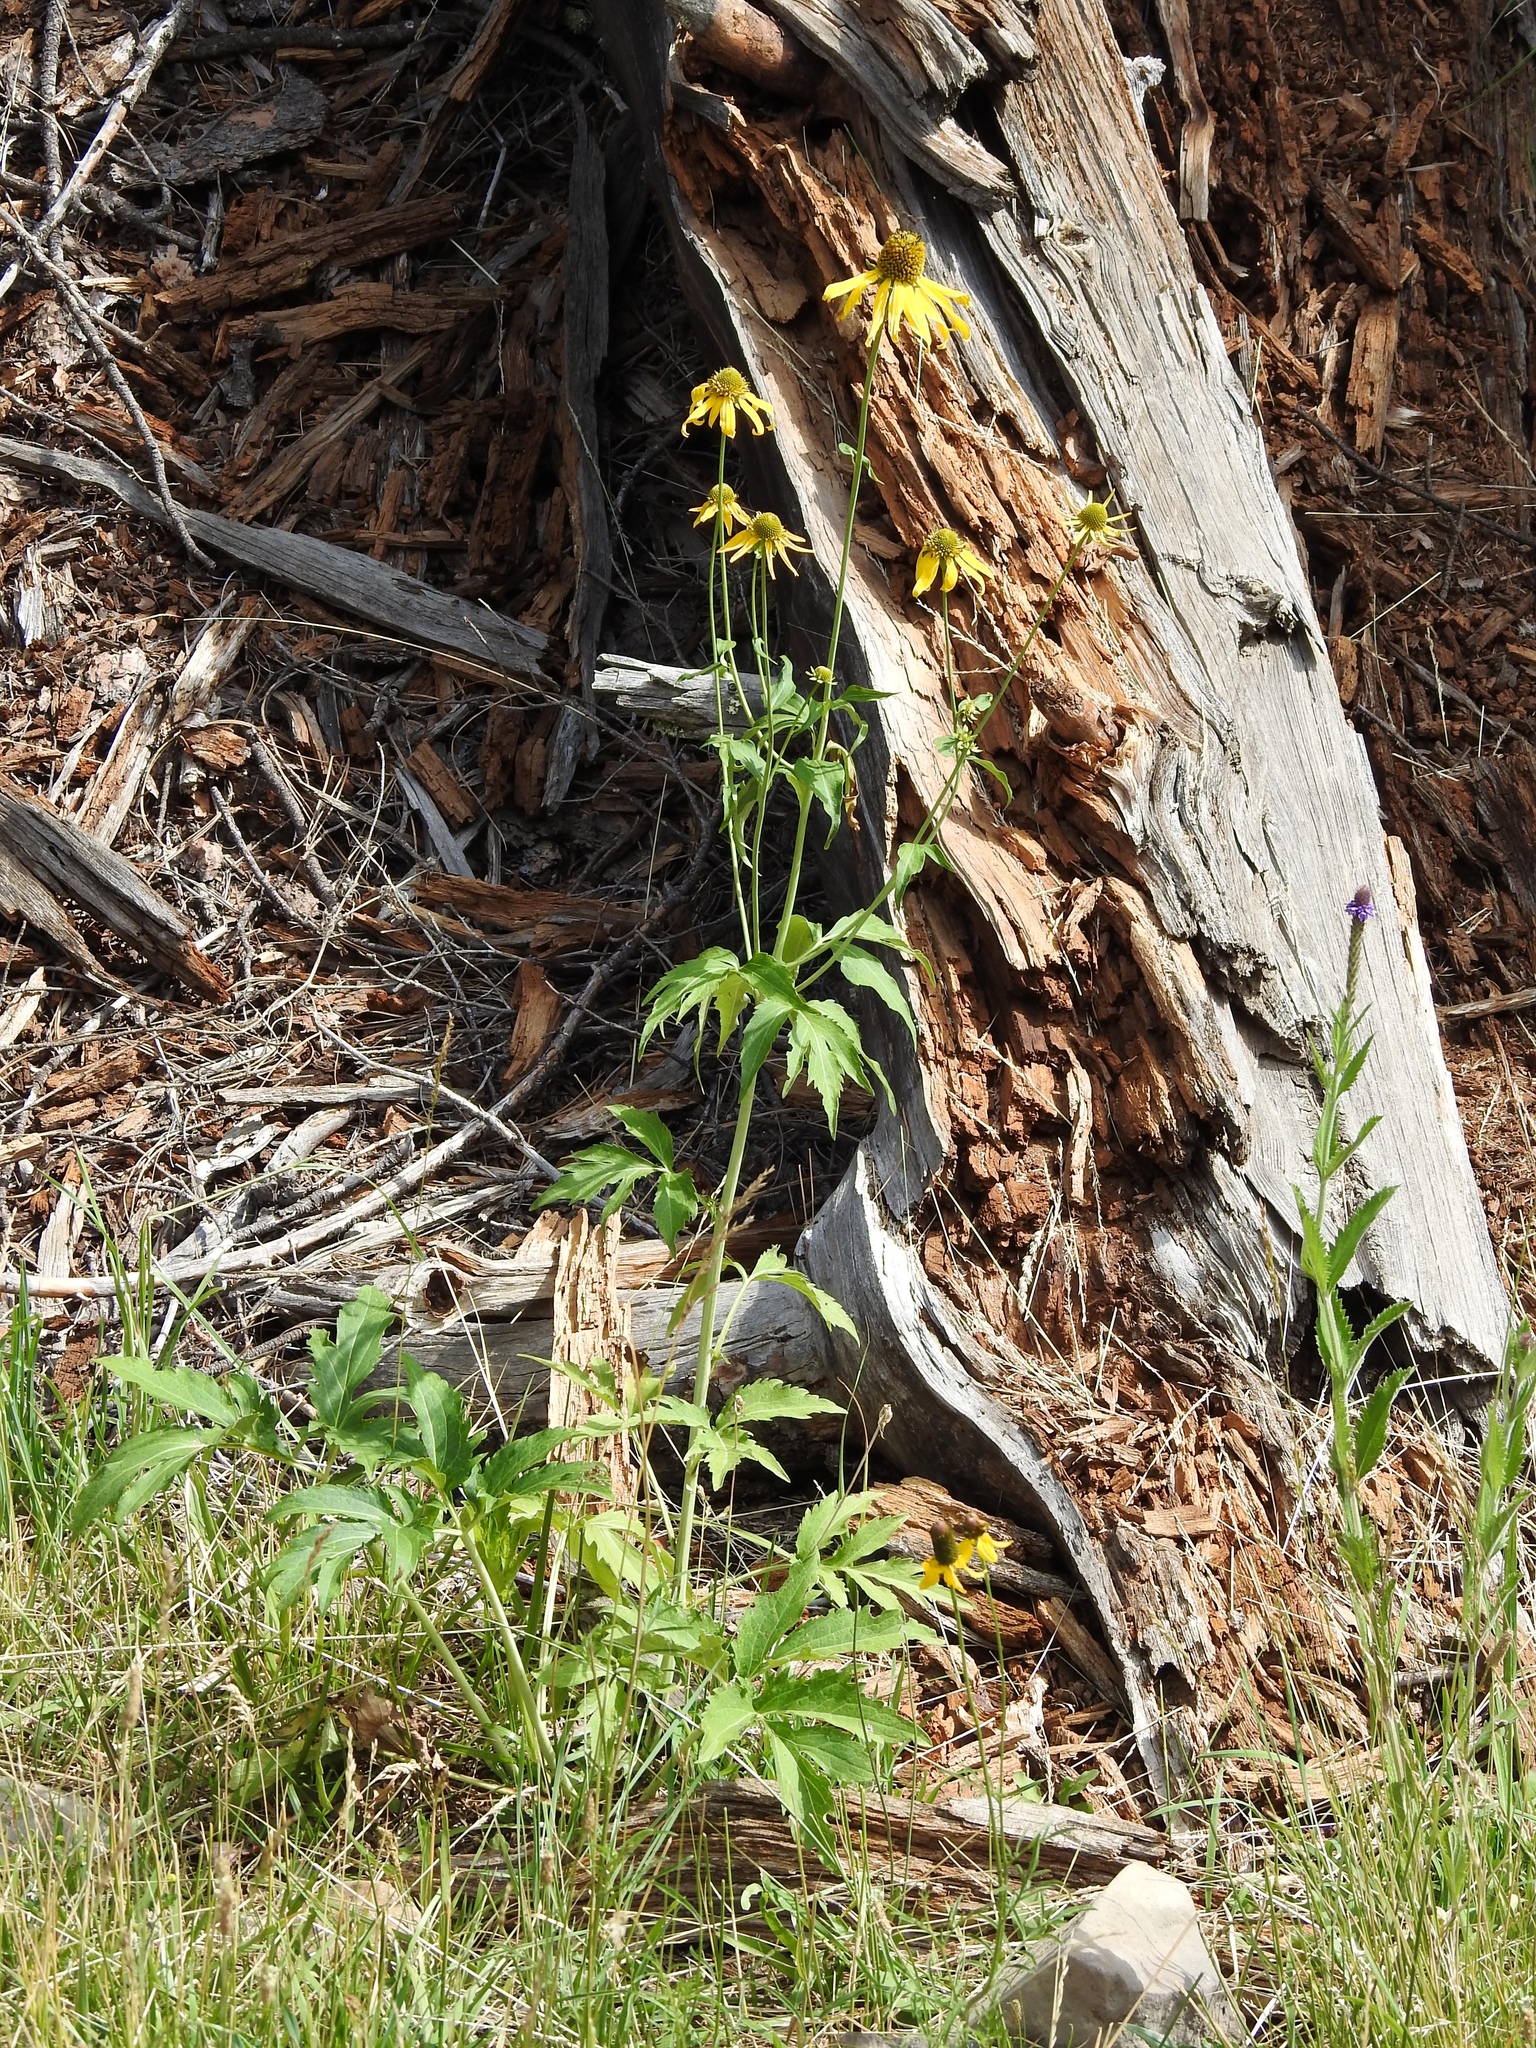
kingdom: Plantae
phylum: Tracheophyta
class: Magnoliopsida
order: Asterales
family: Asteraceae
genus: Rudbeckia
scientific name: Rudbeckia laciniata
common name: Coneflower
